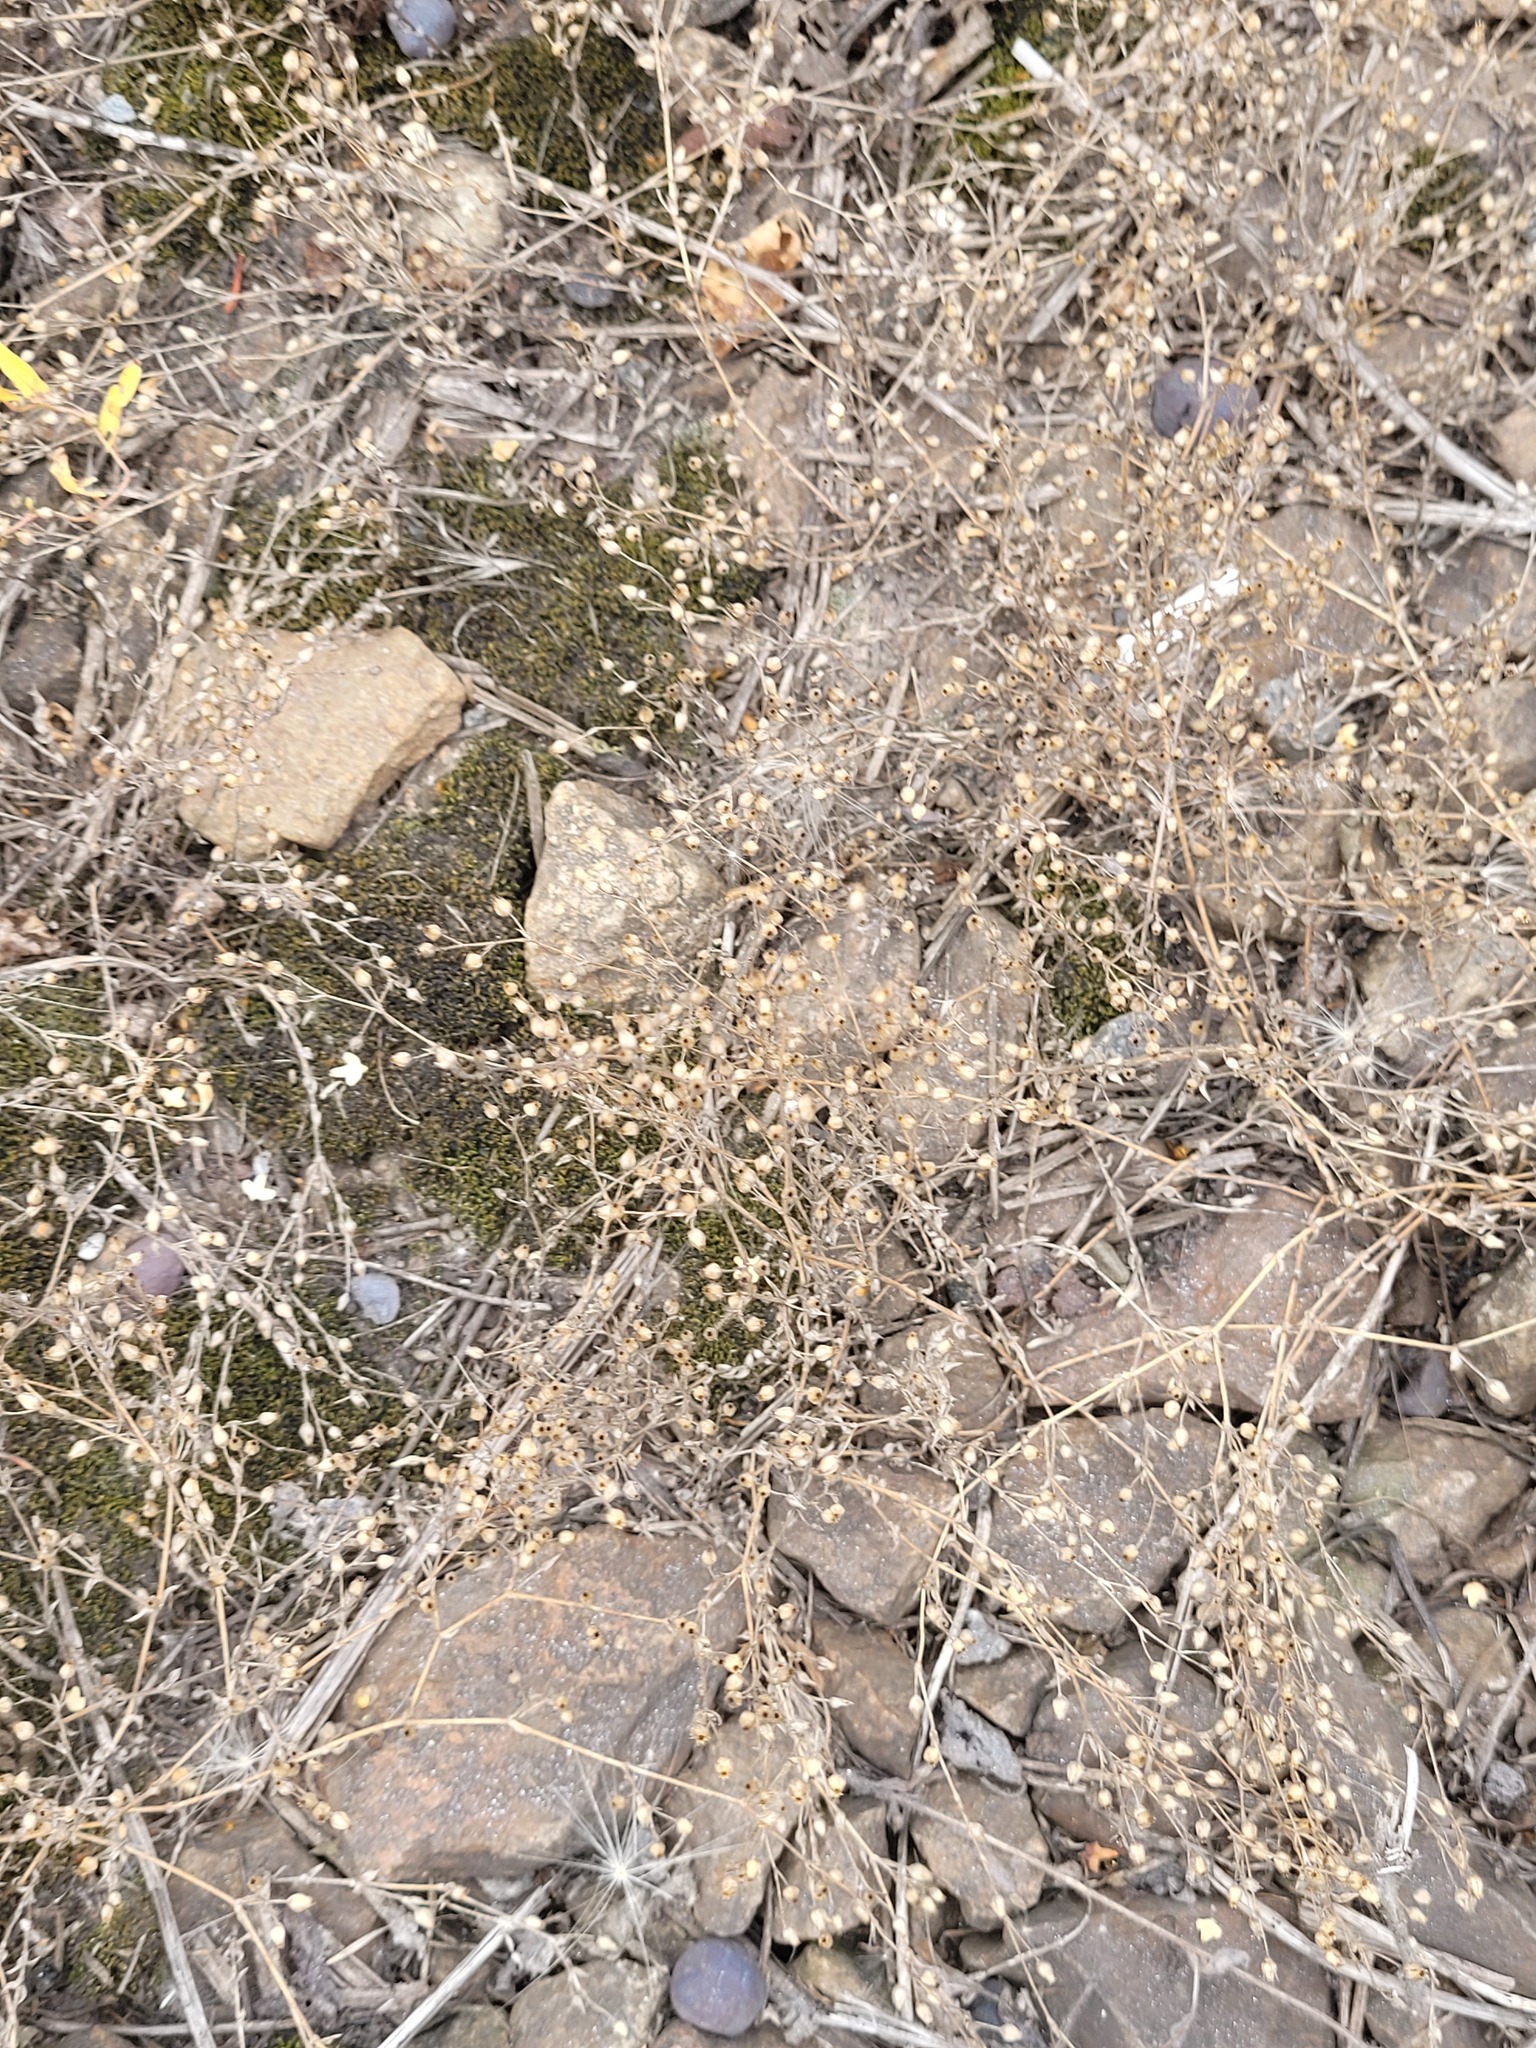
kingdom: Plantae
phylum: Tracheophyta
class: Magnoliopsida
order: Caryophyllales
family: Caryophyllaceae
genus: Arenaria
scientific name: Arenaria serpyllifolia
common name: Thyme-leaved sandwort
